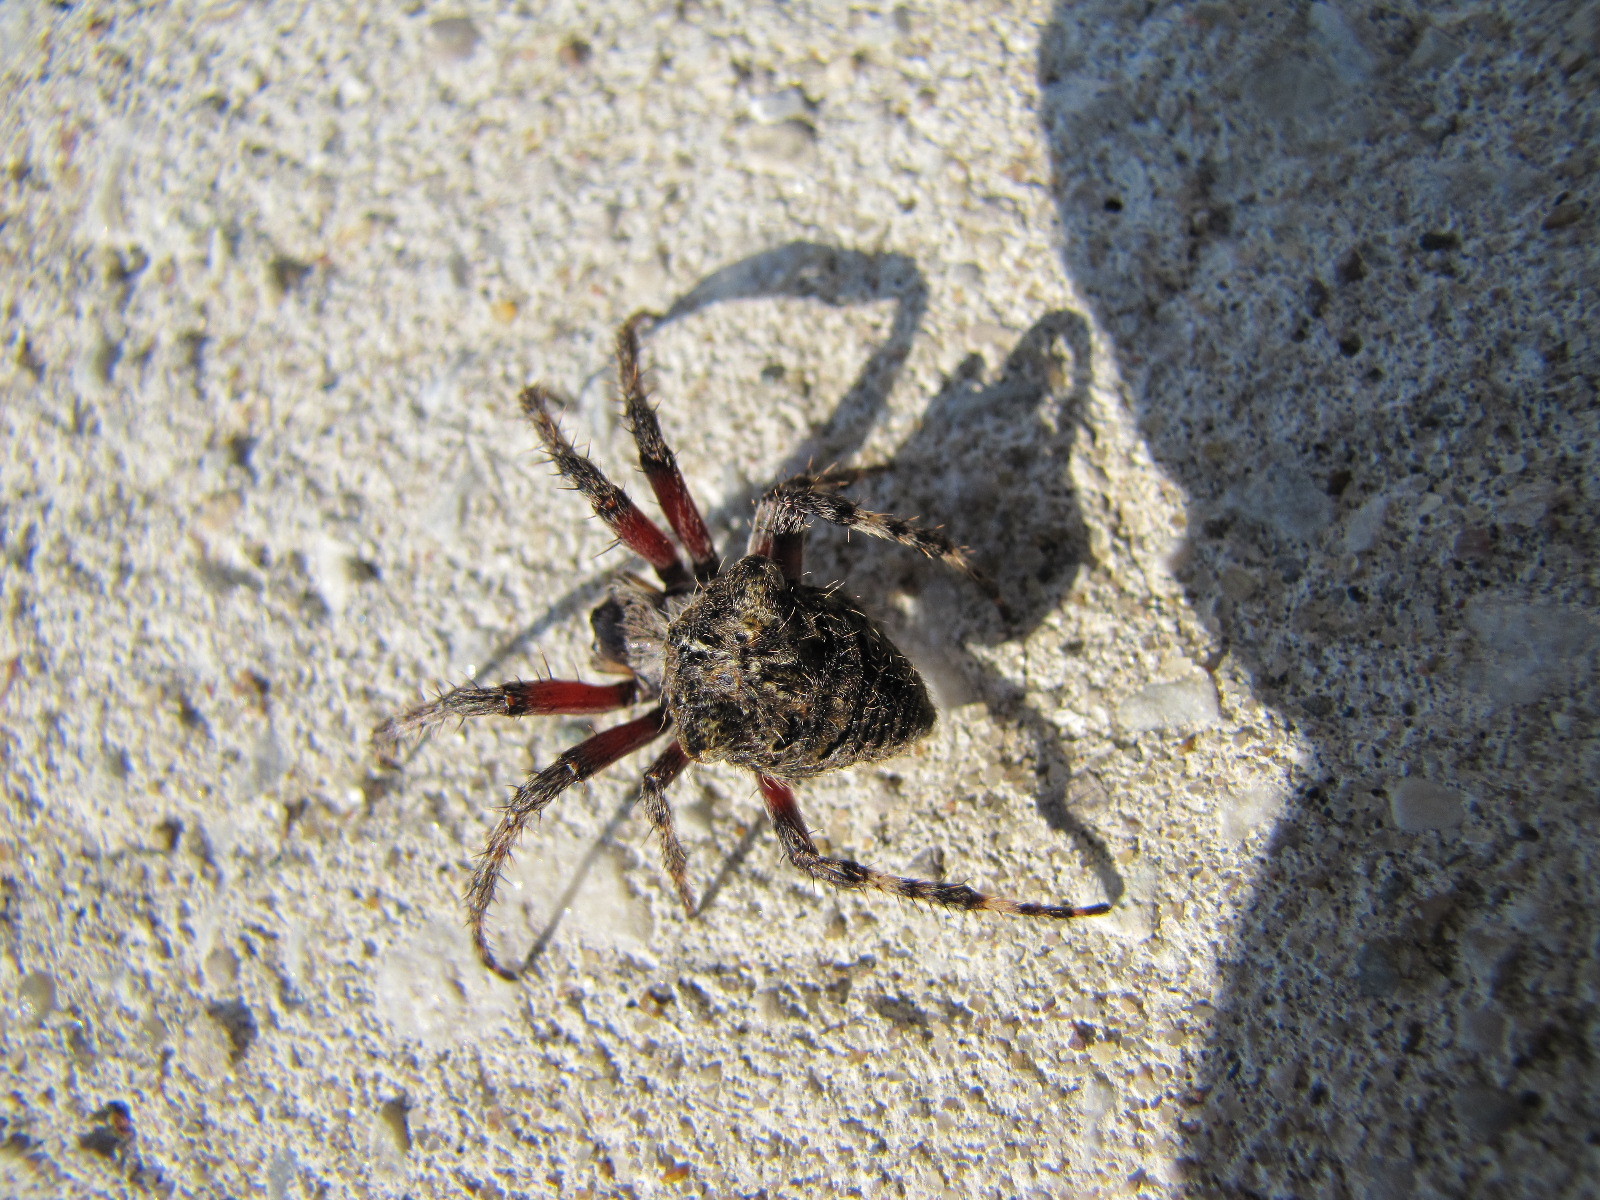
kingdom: Animalia
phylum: Arthropoda
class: Arachnida
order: Araneae
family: Araneidae
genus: Araneus
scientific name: Araneus saevus
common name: Fierce orbweaver
